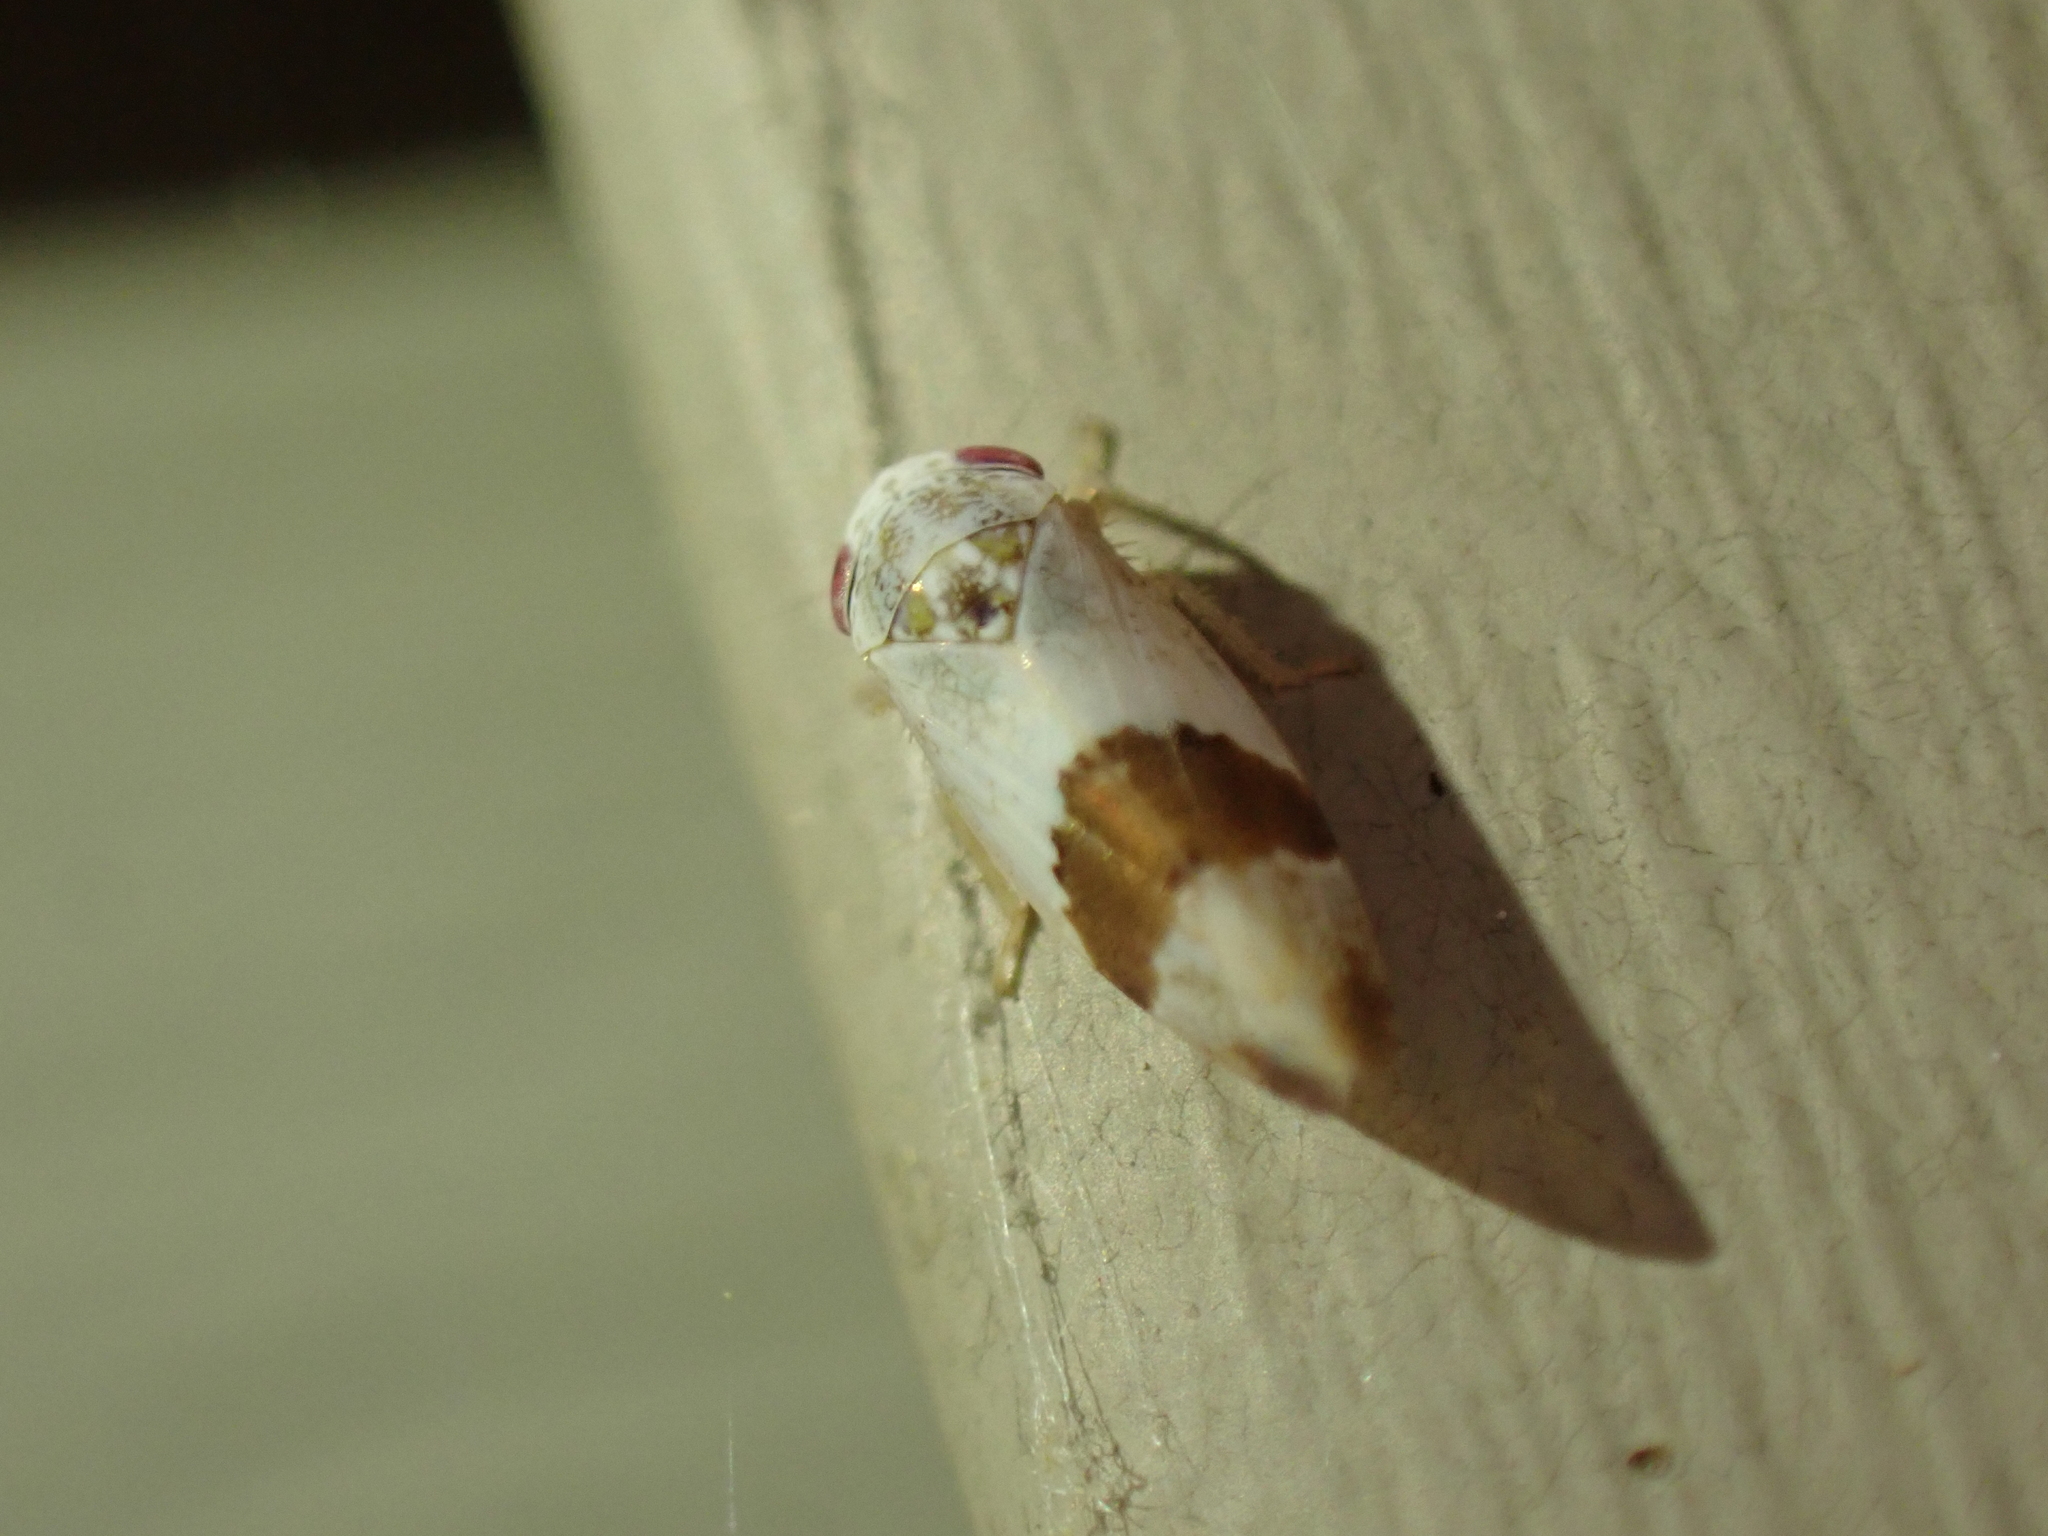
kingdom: Animalia
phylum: Arthropoda
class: Insecta
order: Hemiptera
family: Cicadellidae
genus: Norvellina
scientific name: Norvellina seminuda
